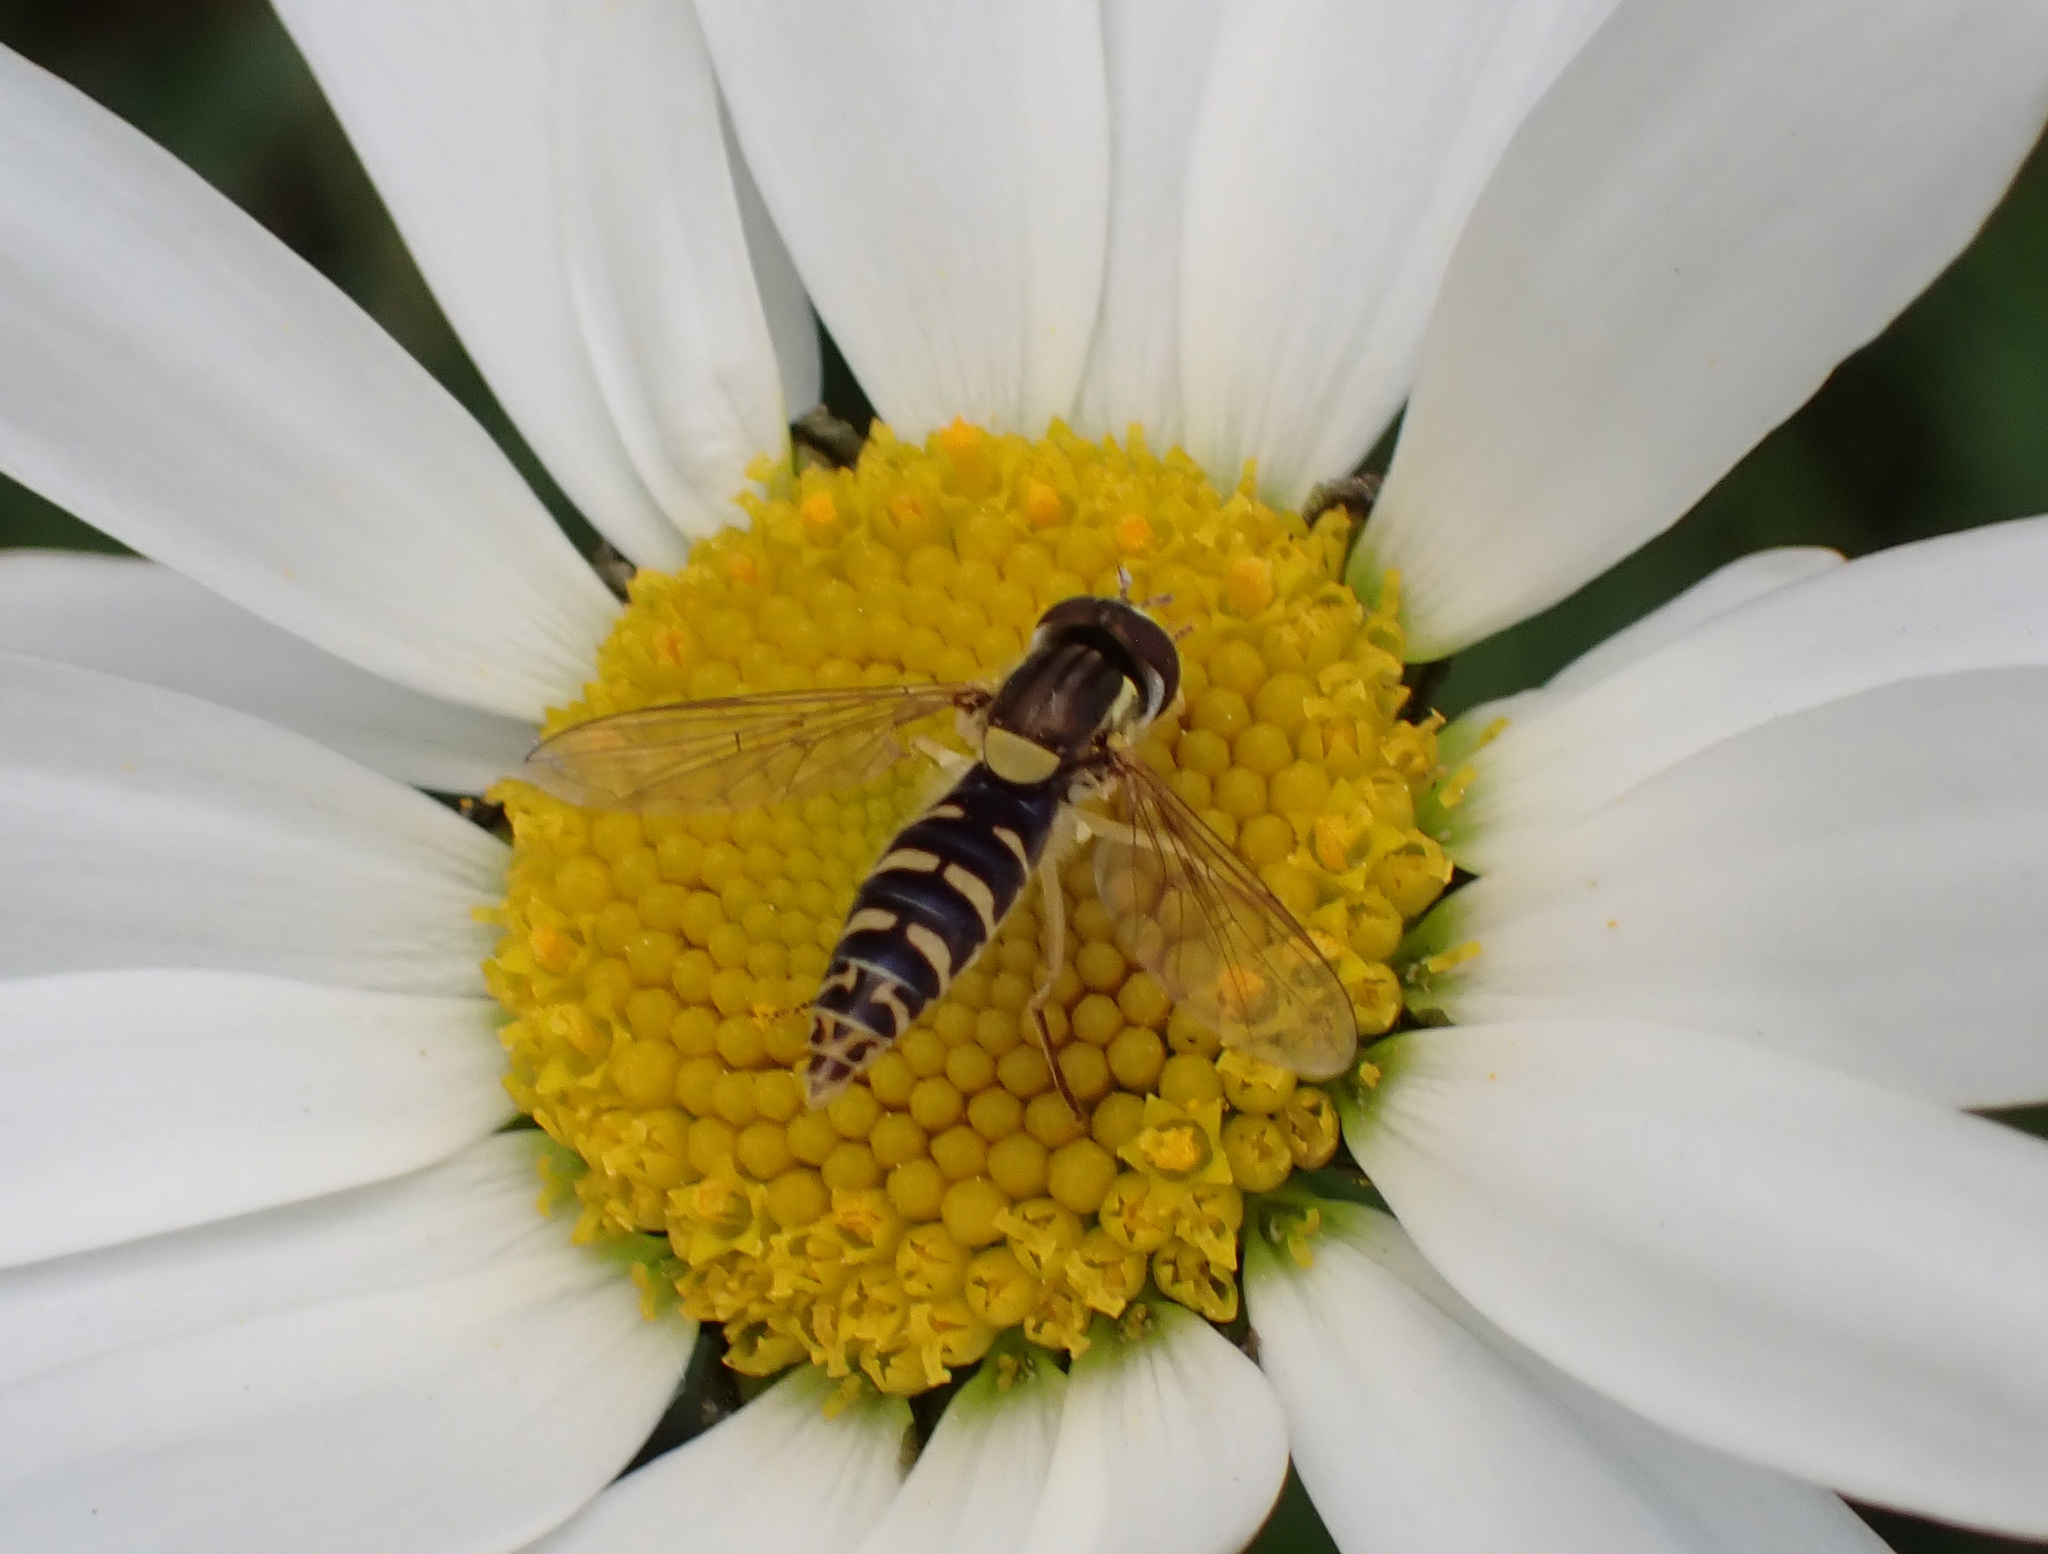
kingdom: Animalia
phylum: Arthropoda
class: Insecta
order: Diptera
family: Syrphidae
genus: Sphaerophoria
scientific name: Sphaerophoria
